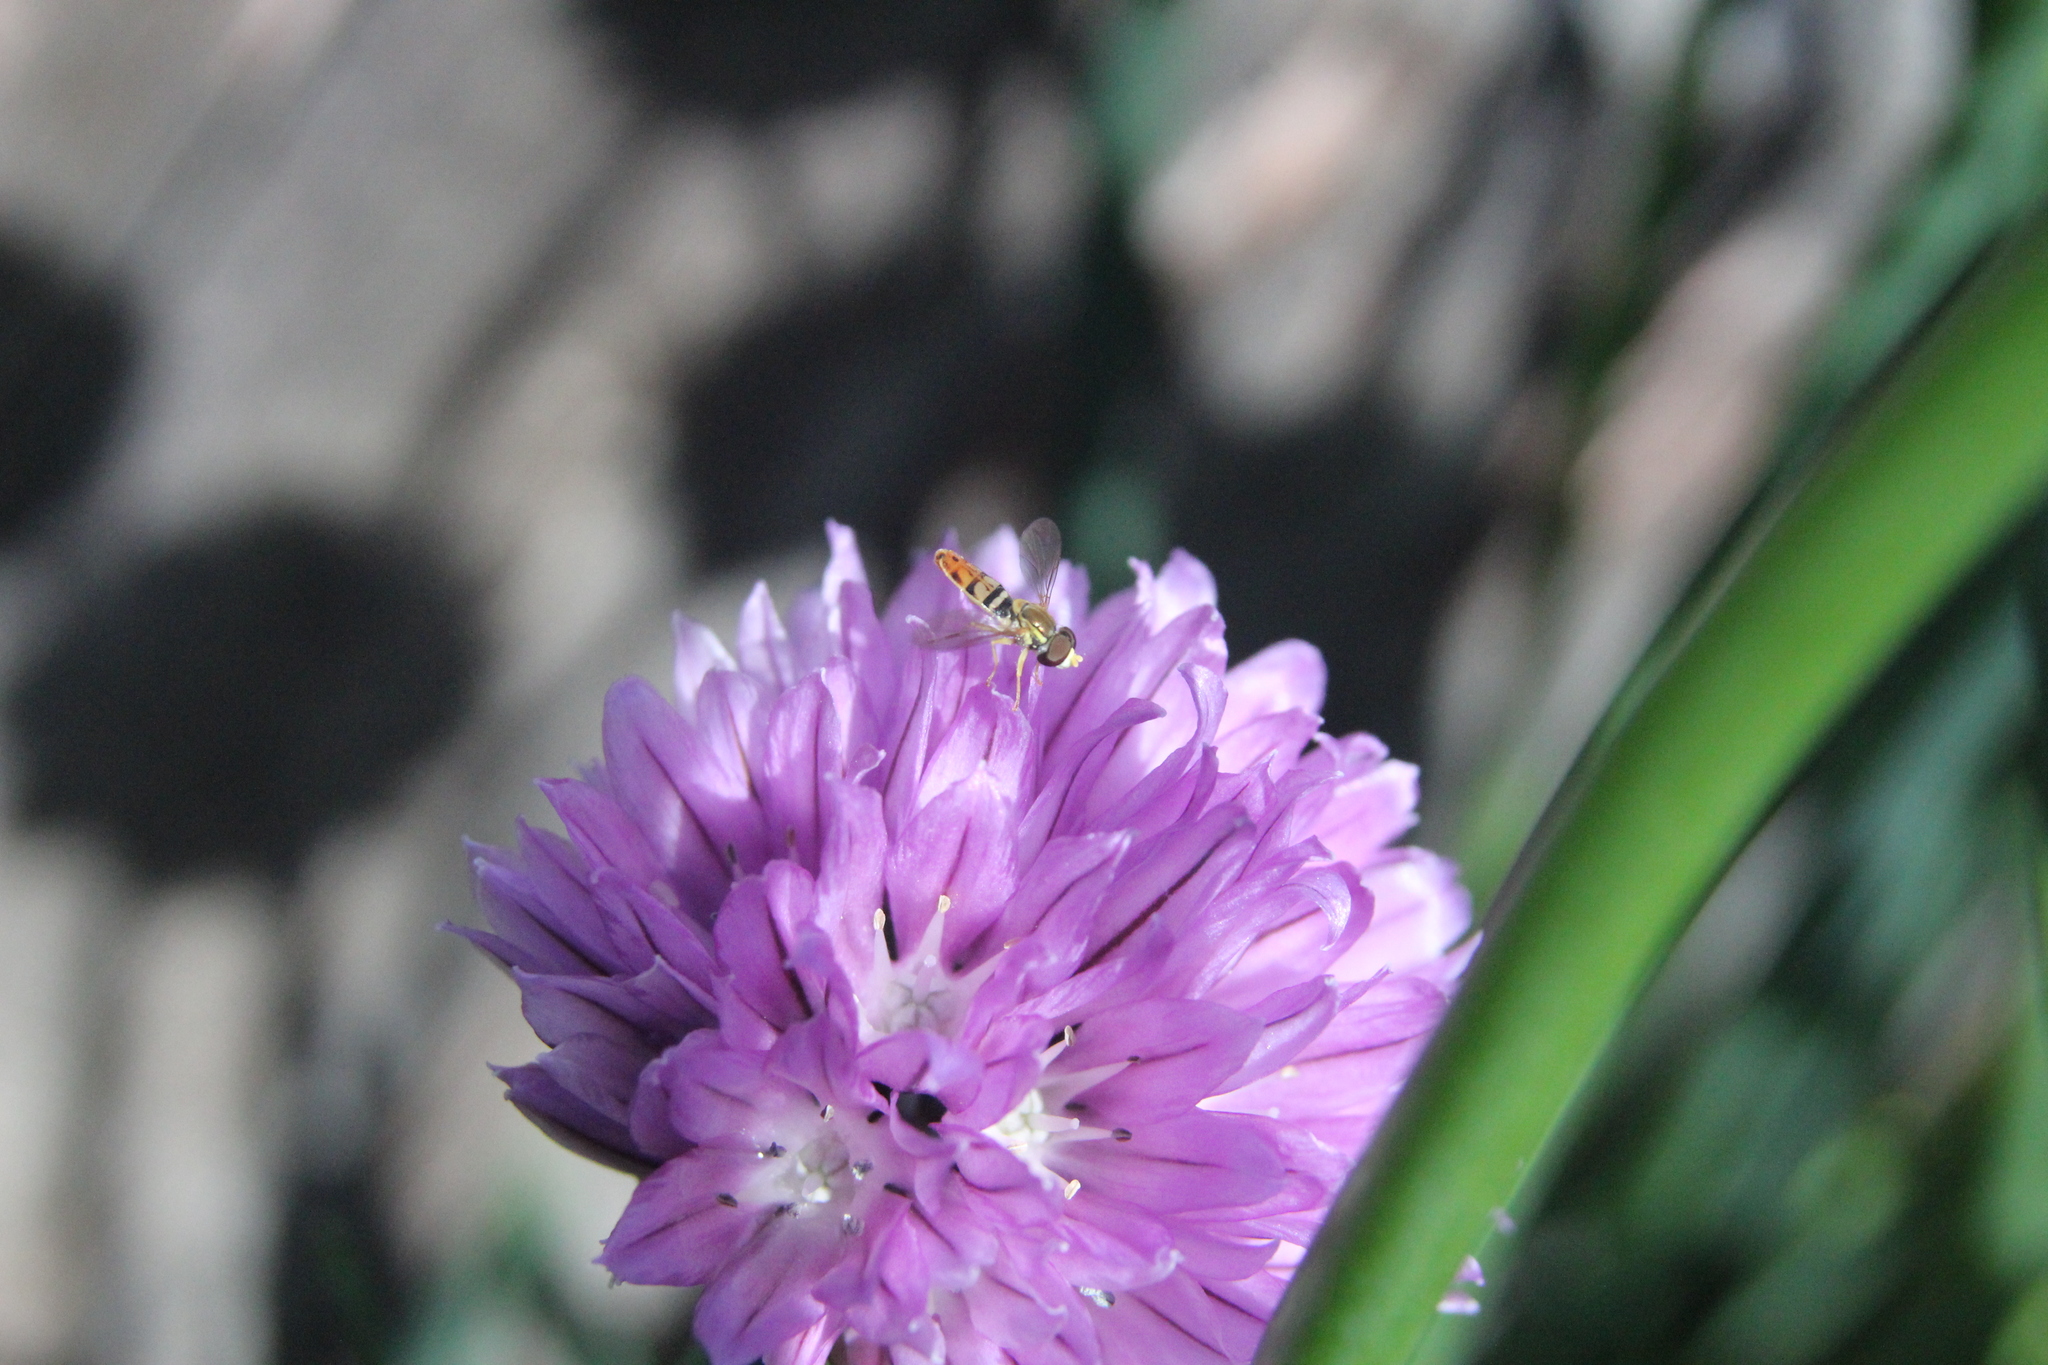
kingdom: Animalia
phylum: Arthropoda
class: Insecta
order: Diptera
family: Syrphidae
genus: Toxomerus
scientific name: Toxomerus marginatus
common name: Syrphid fly
